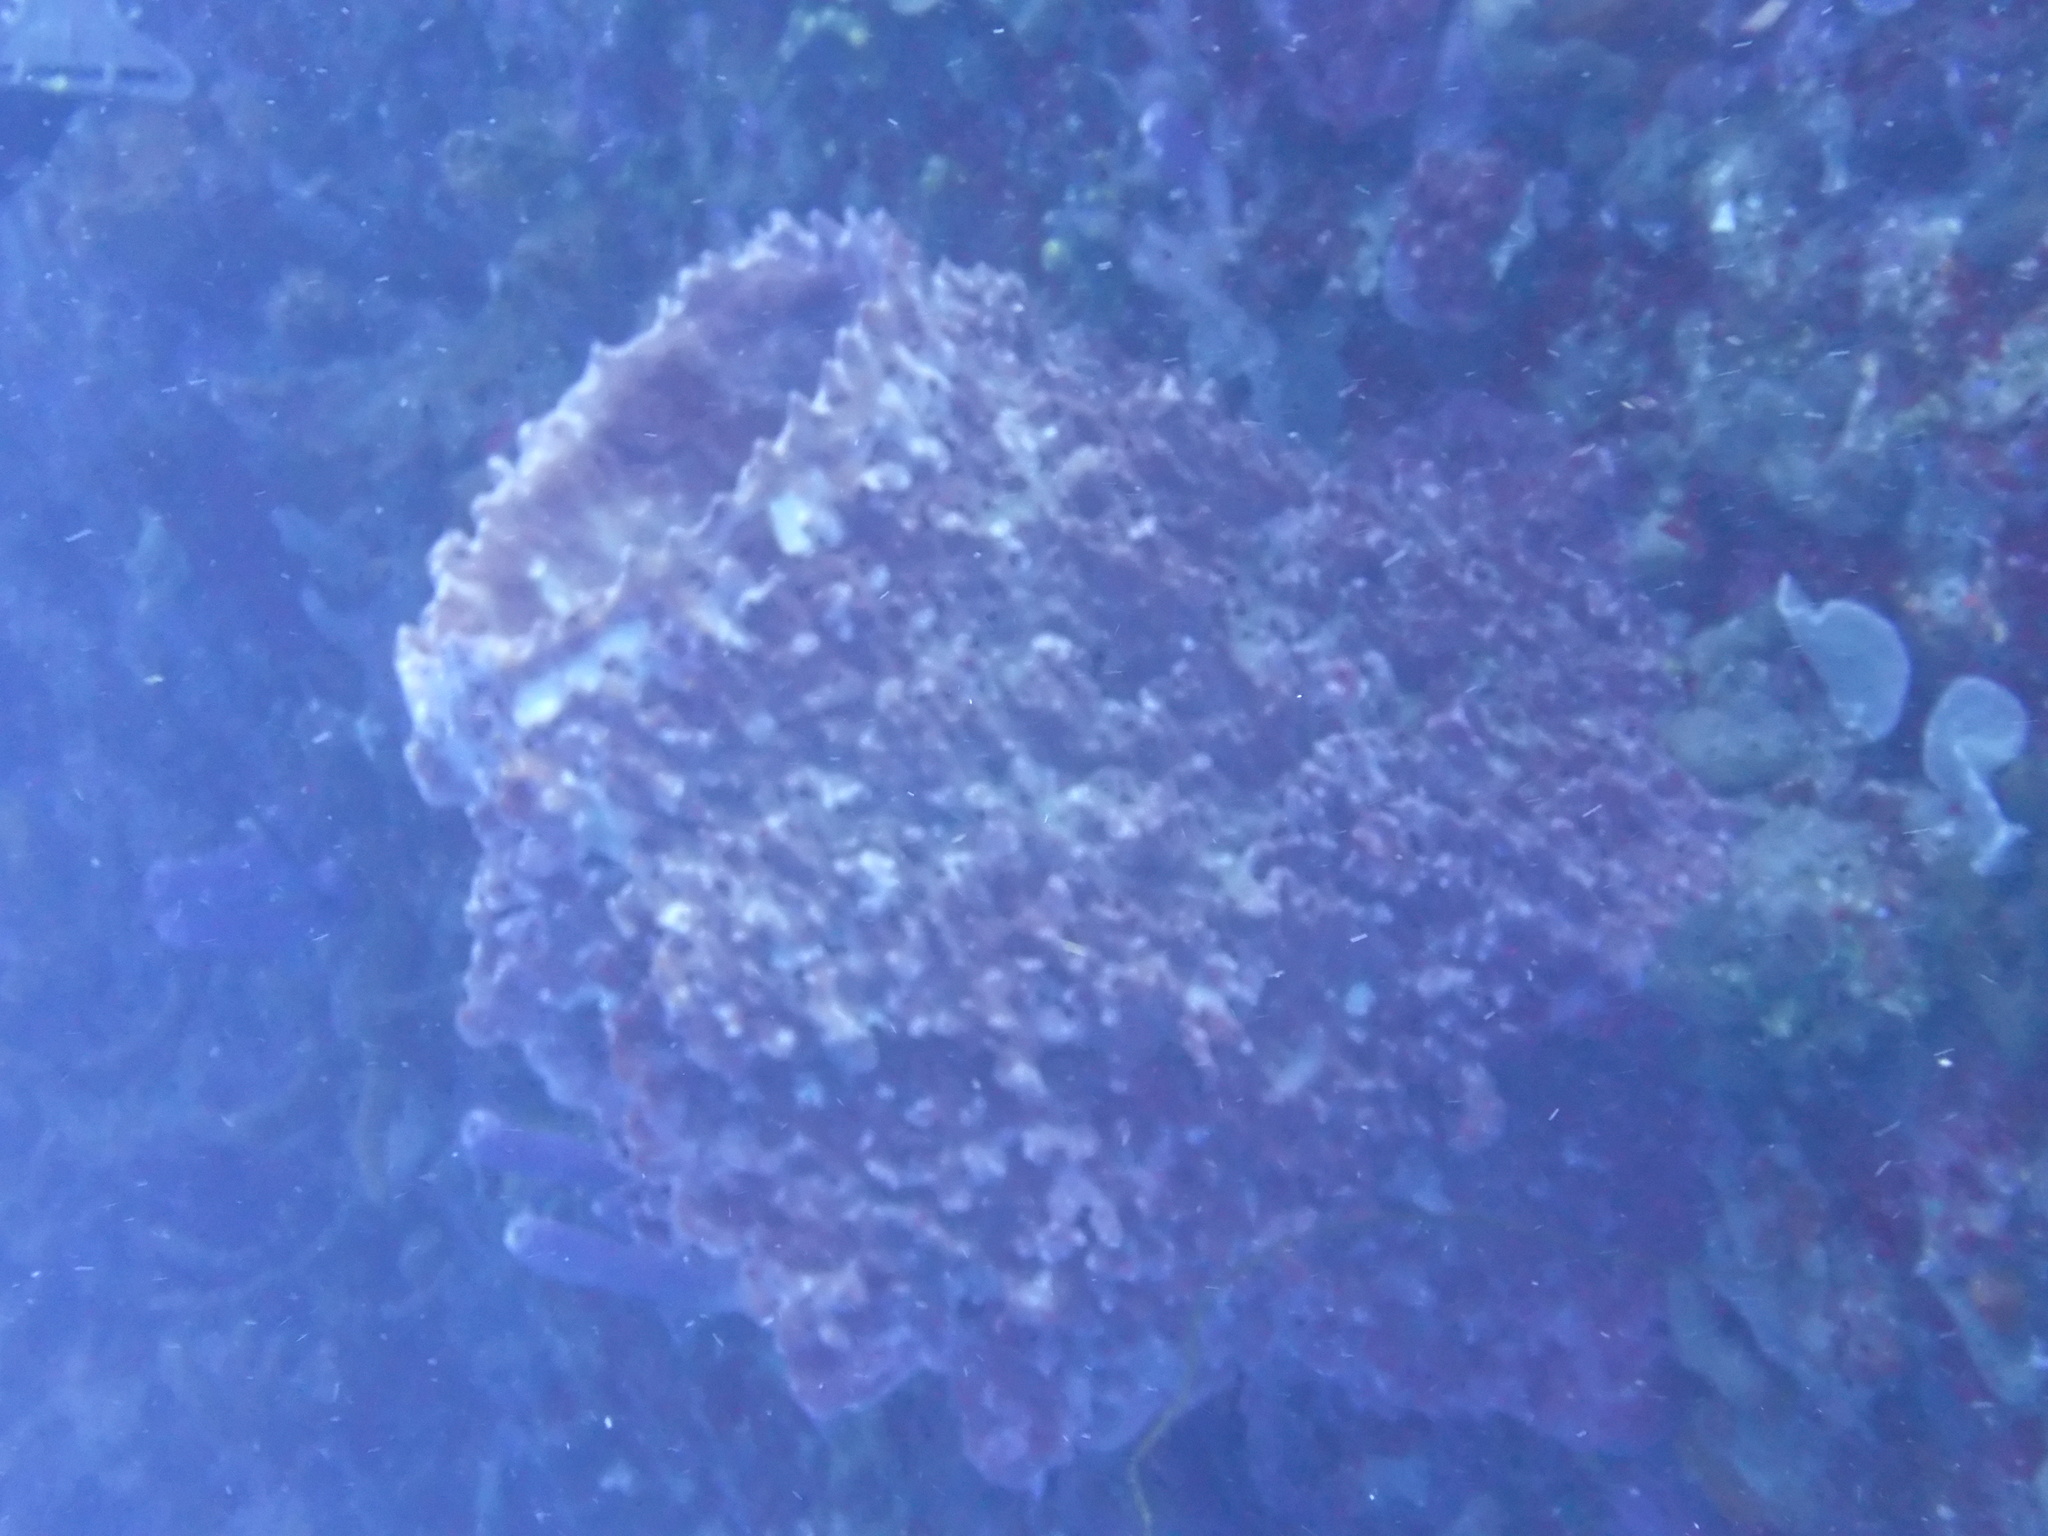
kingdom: Animalia
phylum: Porifera
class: Demospongiae
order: Haplosclerida
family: Petrosiidae
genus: Xestospongia
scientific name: Xestospongia muta
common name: Giant barrel sponge
